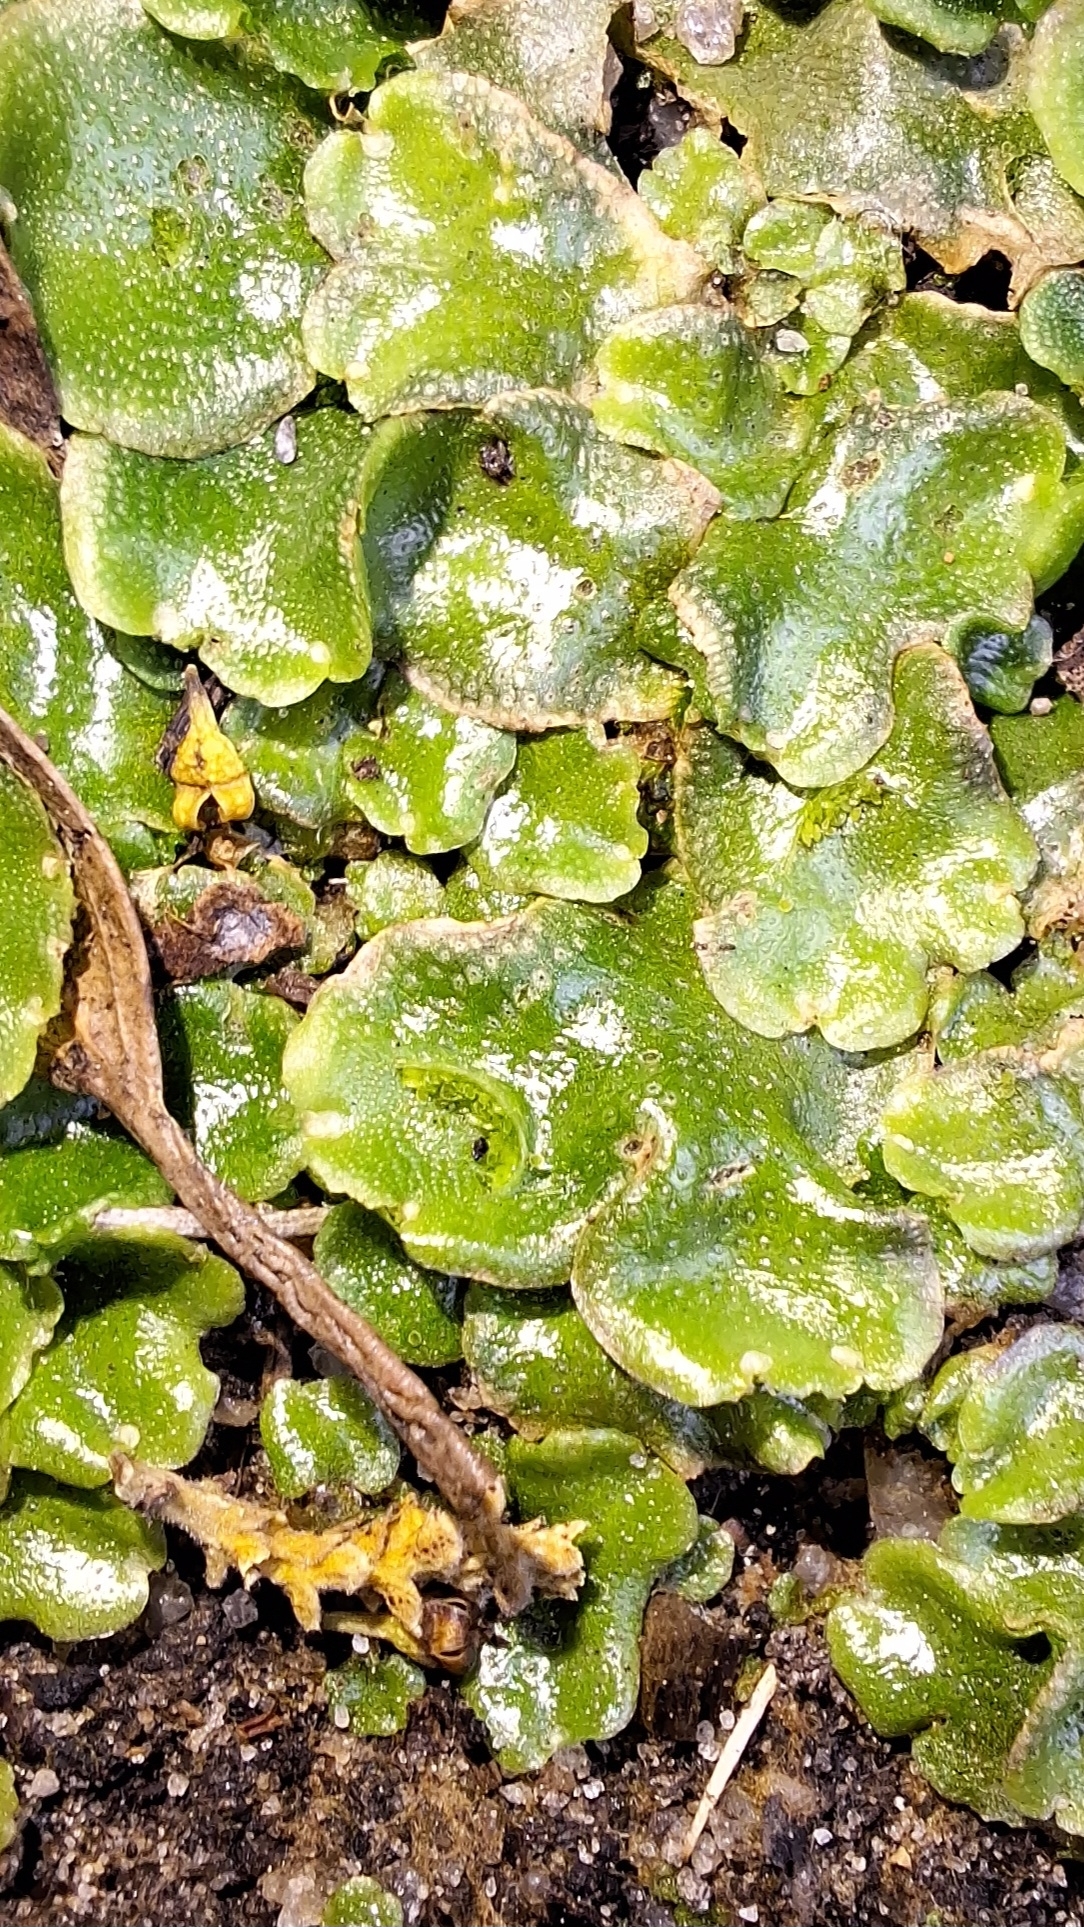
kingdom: Plantae
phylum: Marchantiophyta
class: Marchantiopsida
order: Lunulariales
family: Lunulariaceae
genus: Lunularia
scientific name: Lunularia cruciata
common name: Crescent-cup liverwort
